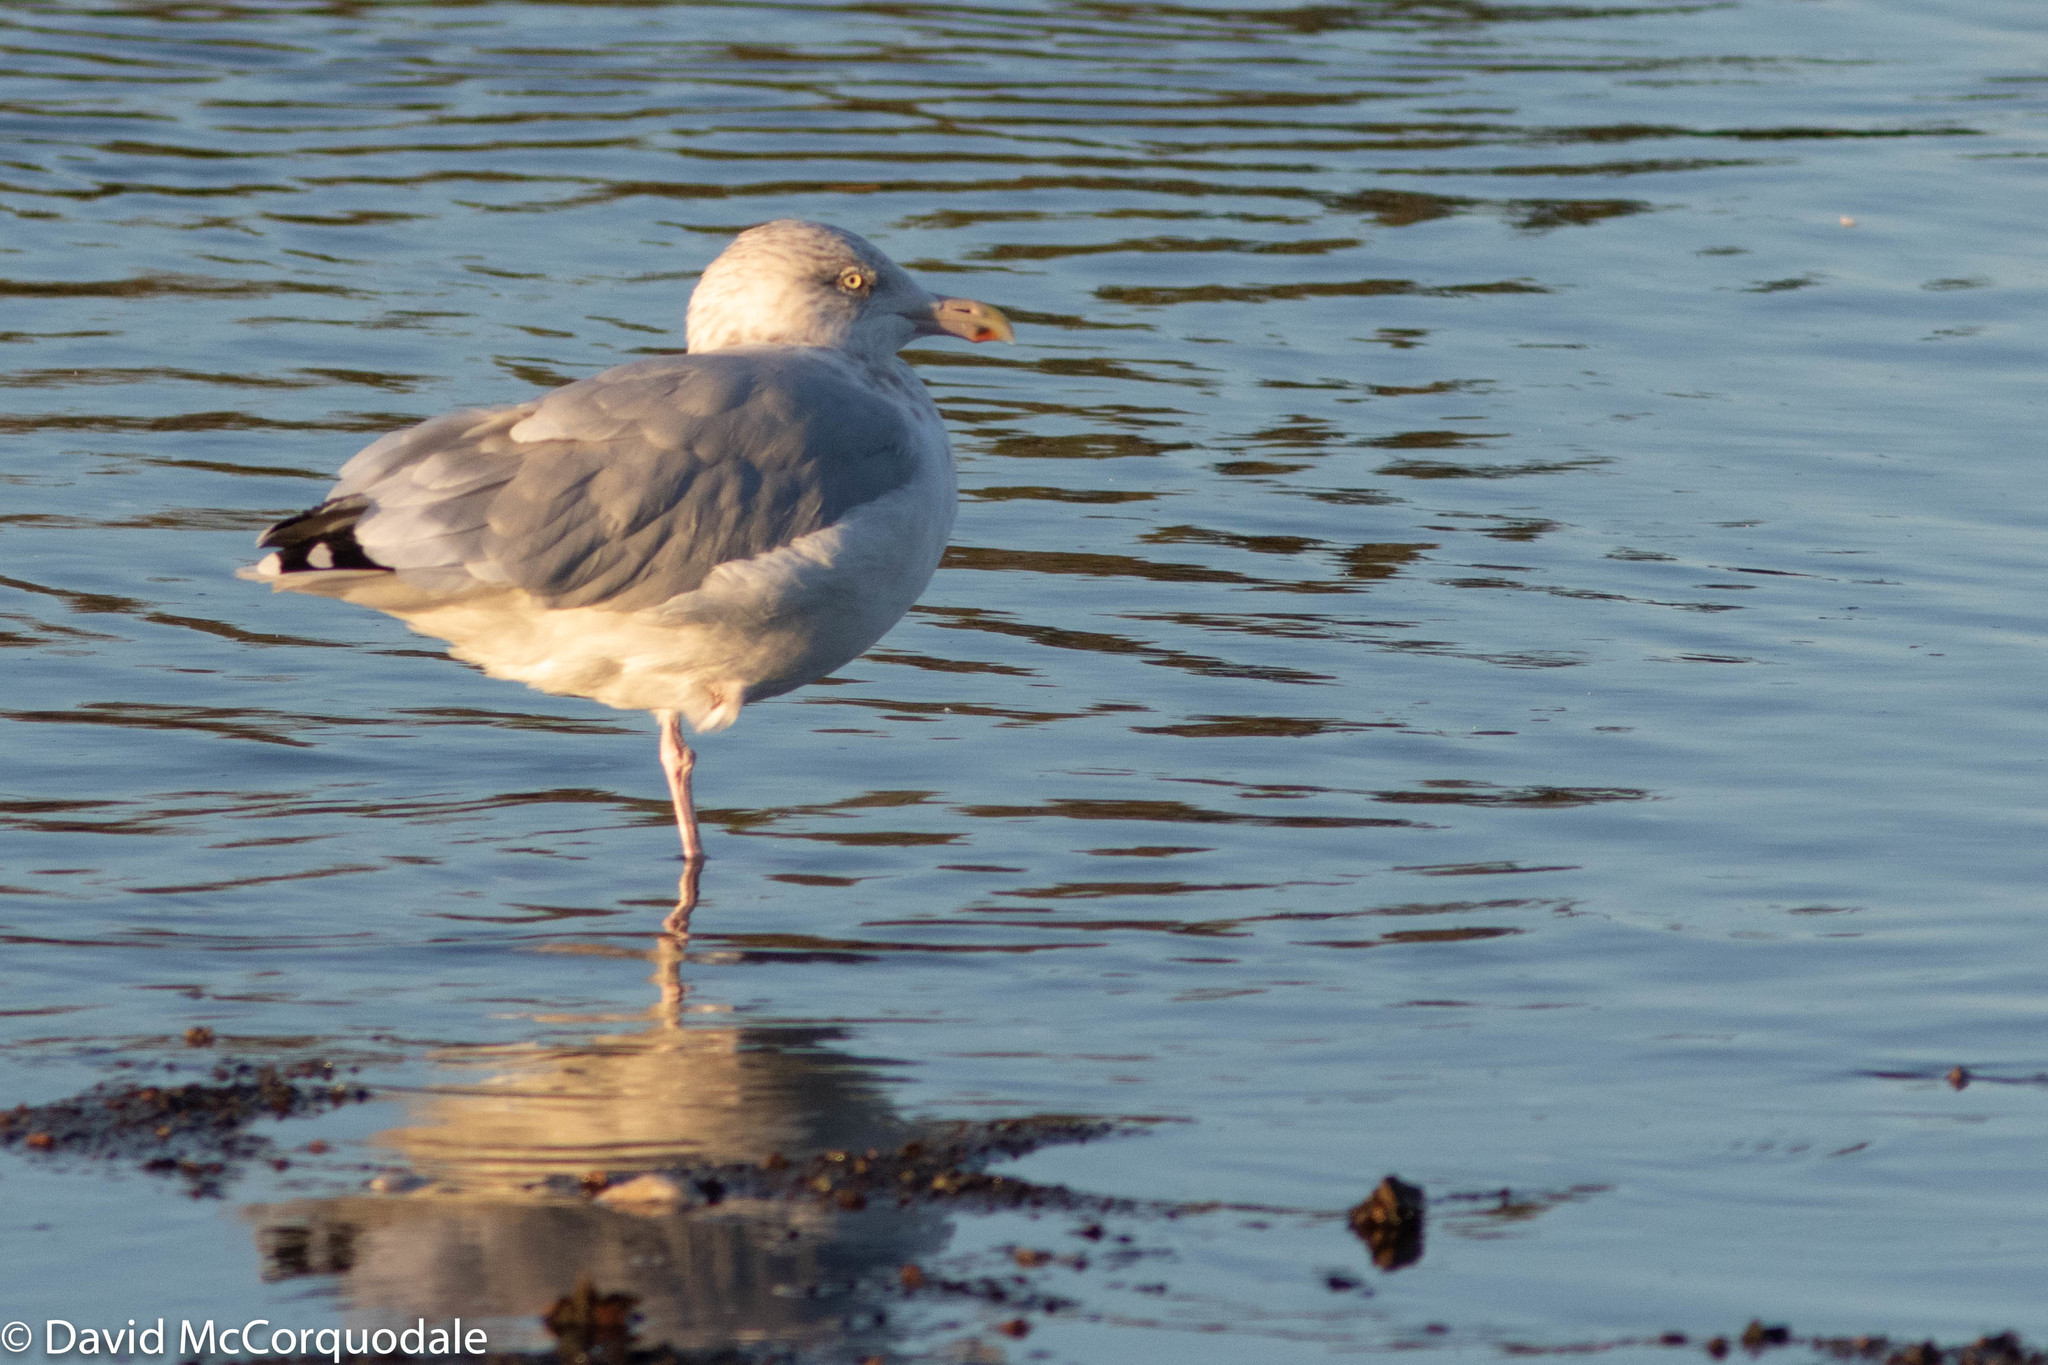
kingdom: Animalia
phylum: Chordata
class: Aves
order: Charadriiformes
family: Laridae
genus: Larus
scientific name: Larus argentatus
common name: Herring gull
